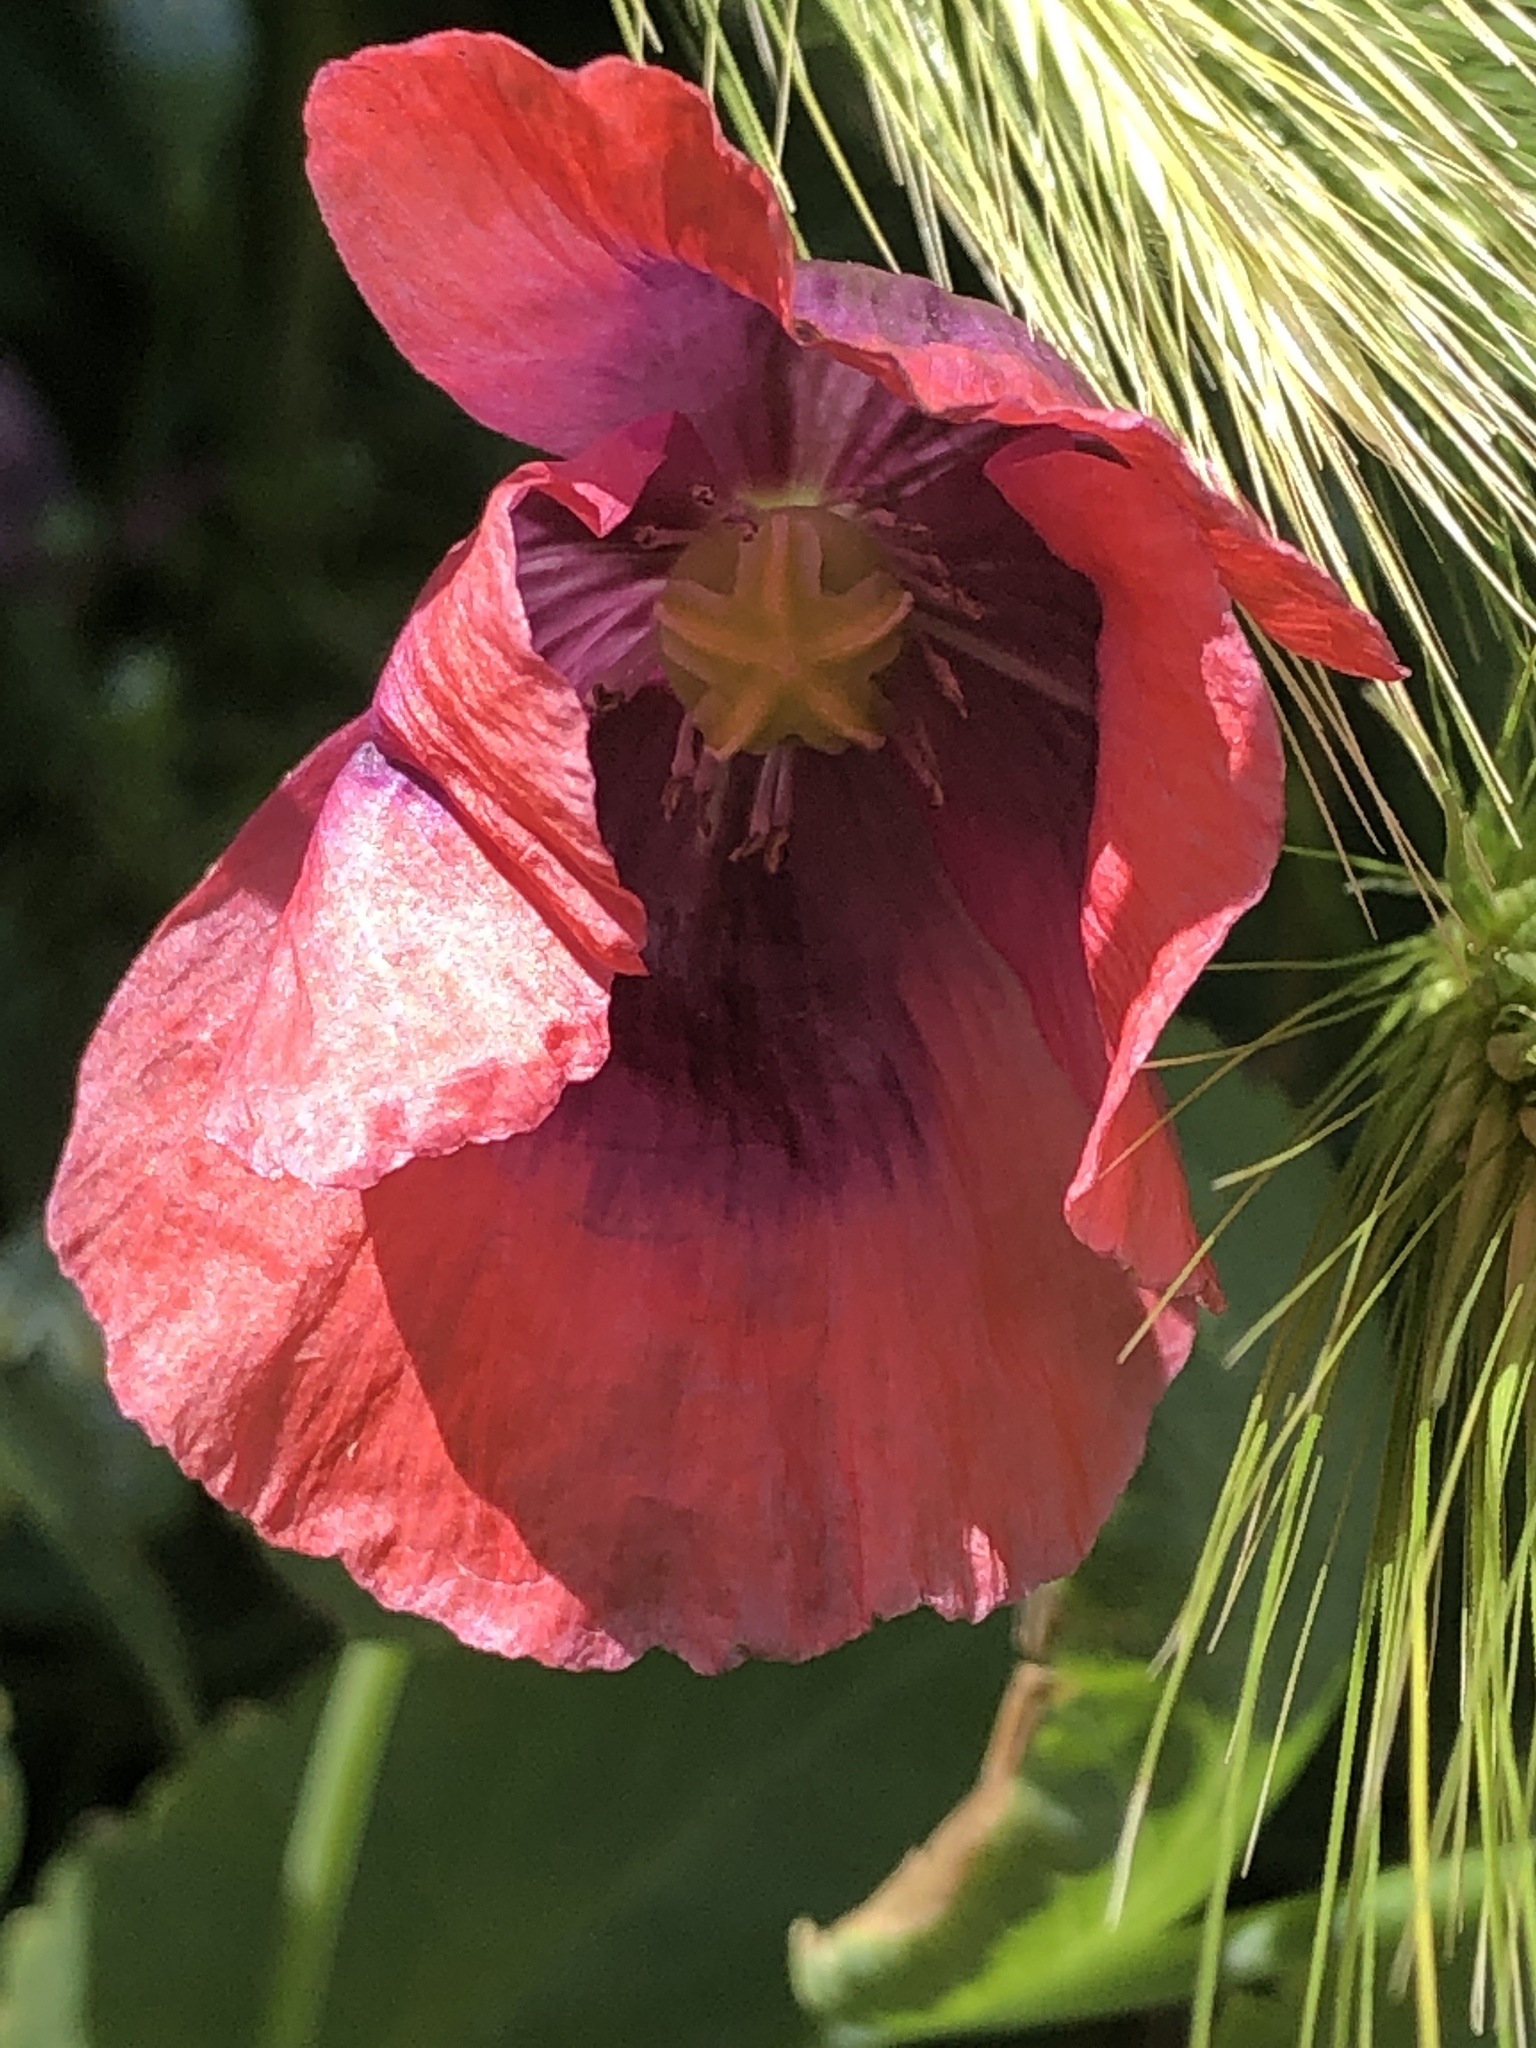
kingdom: Plantae
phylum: Tracheophyta
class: Magnoliopsida
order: Ranunculales
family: Papaveraceae
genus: Papaver
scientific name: Papaver somniferum
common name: Opium poppy
